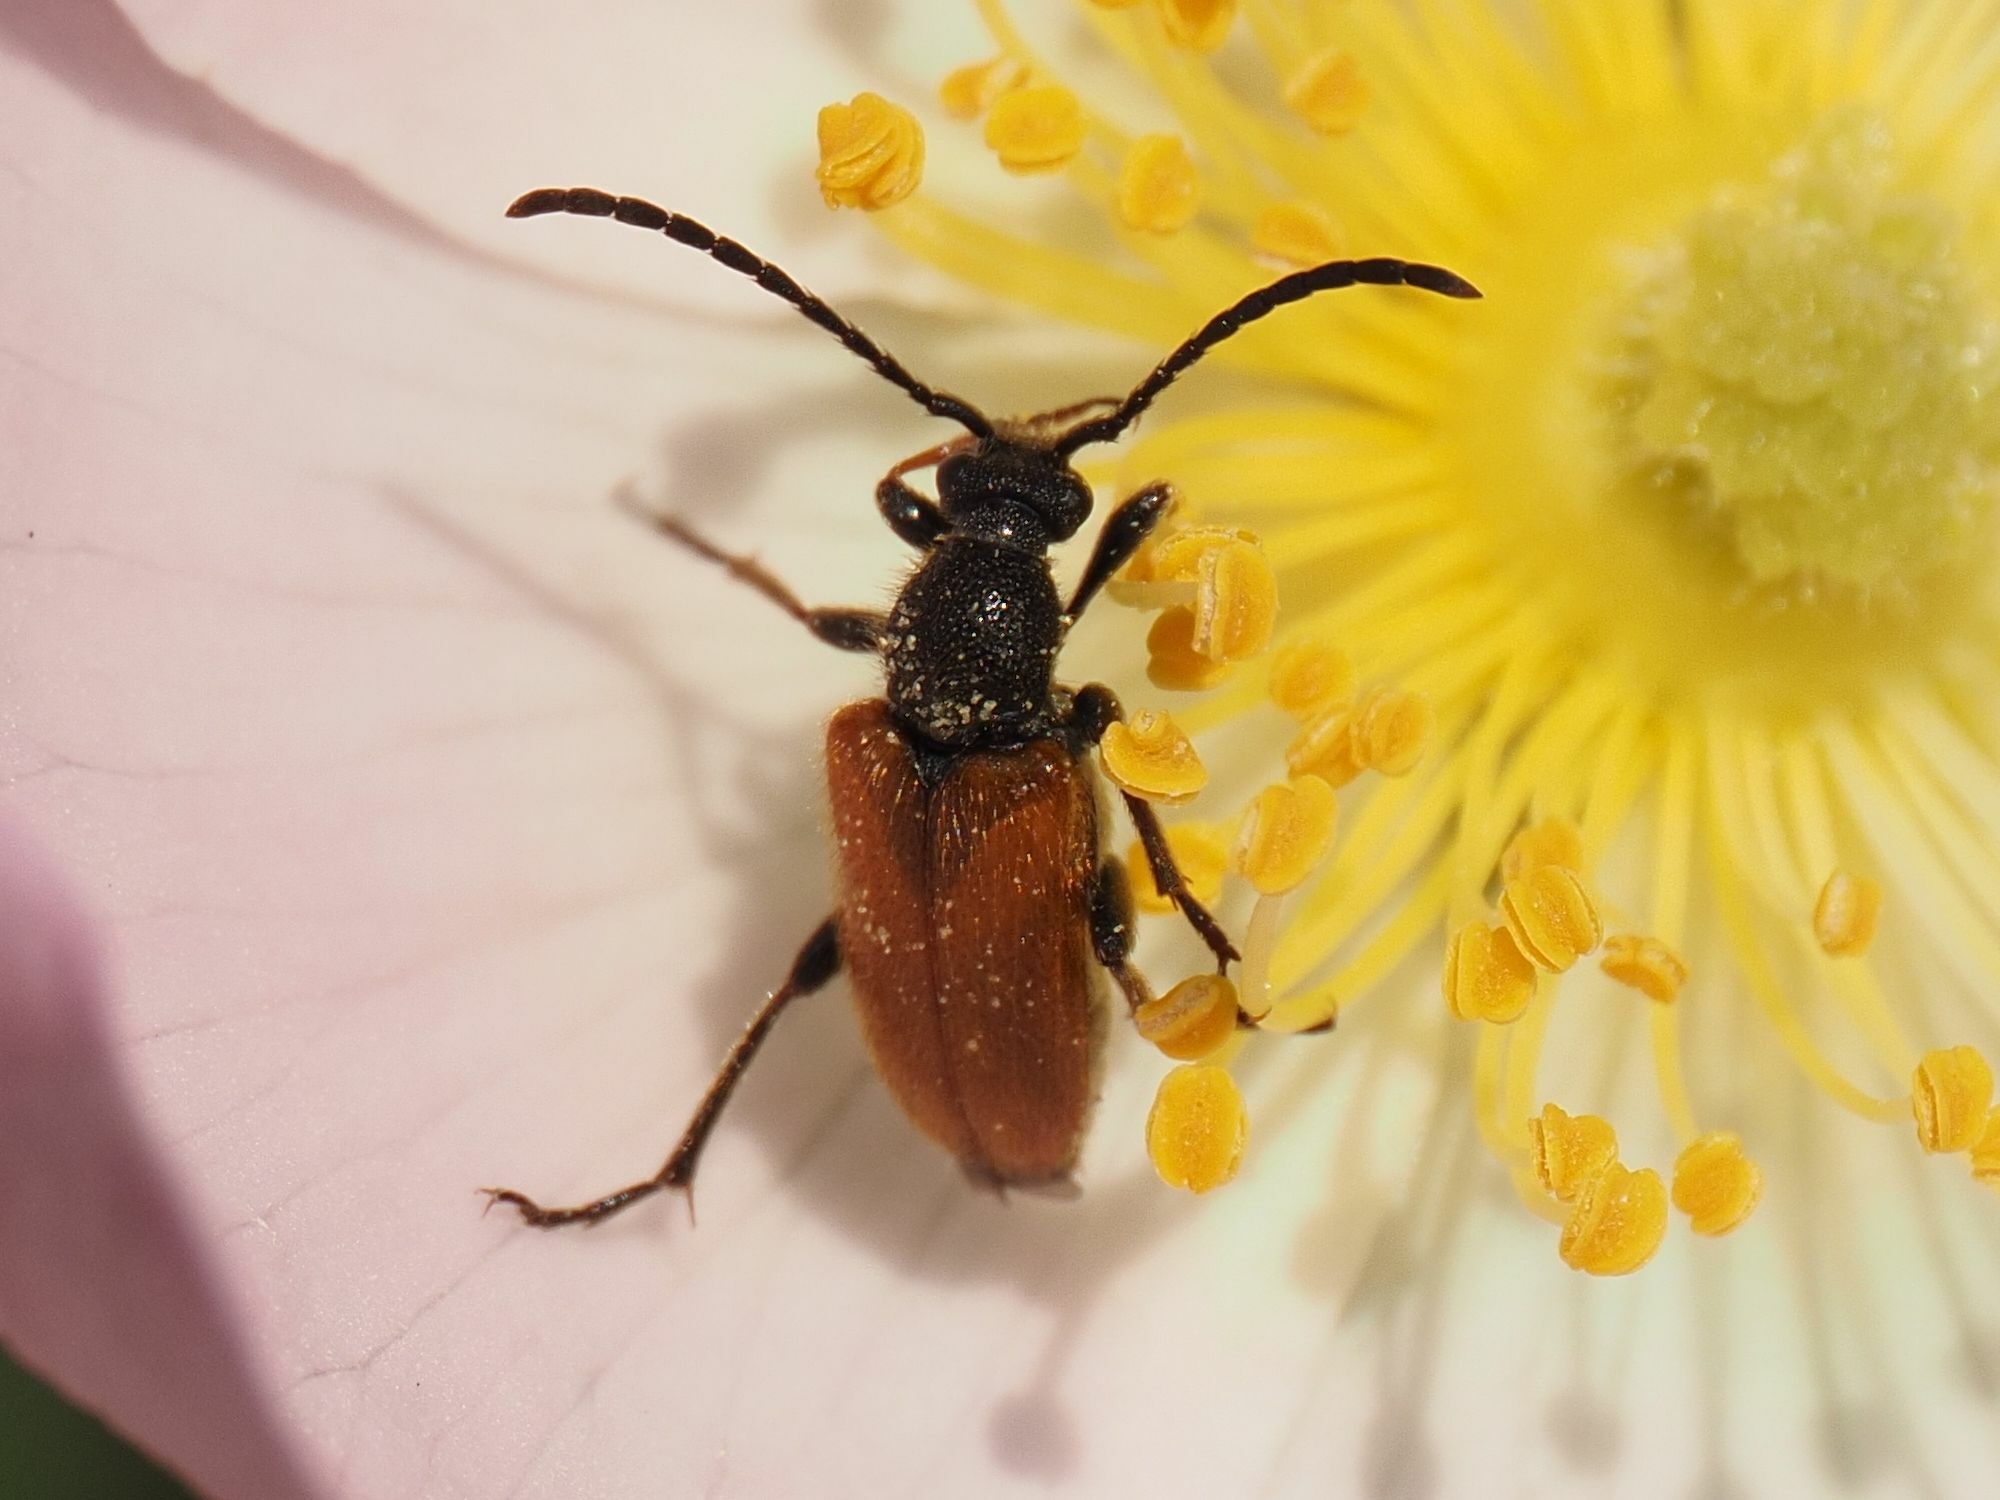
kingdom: Animalia
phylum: Arthropoda
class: Insecta
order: Coleoptera
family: Cerambycidae
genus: Pseudovadonia
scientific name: Pseudovadonia livida
